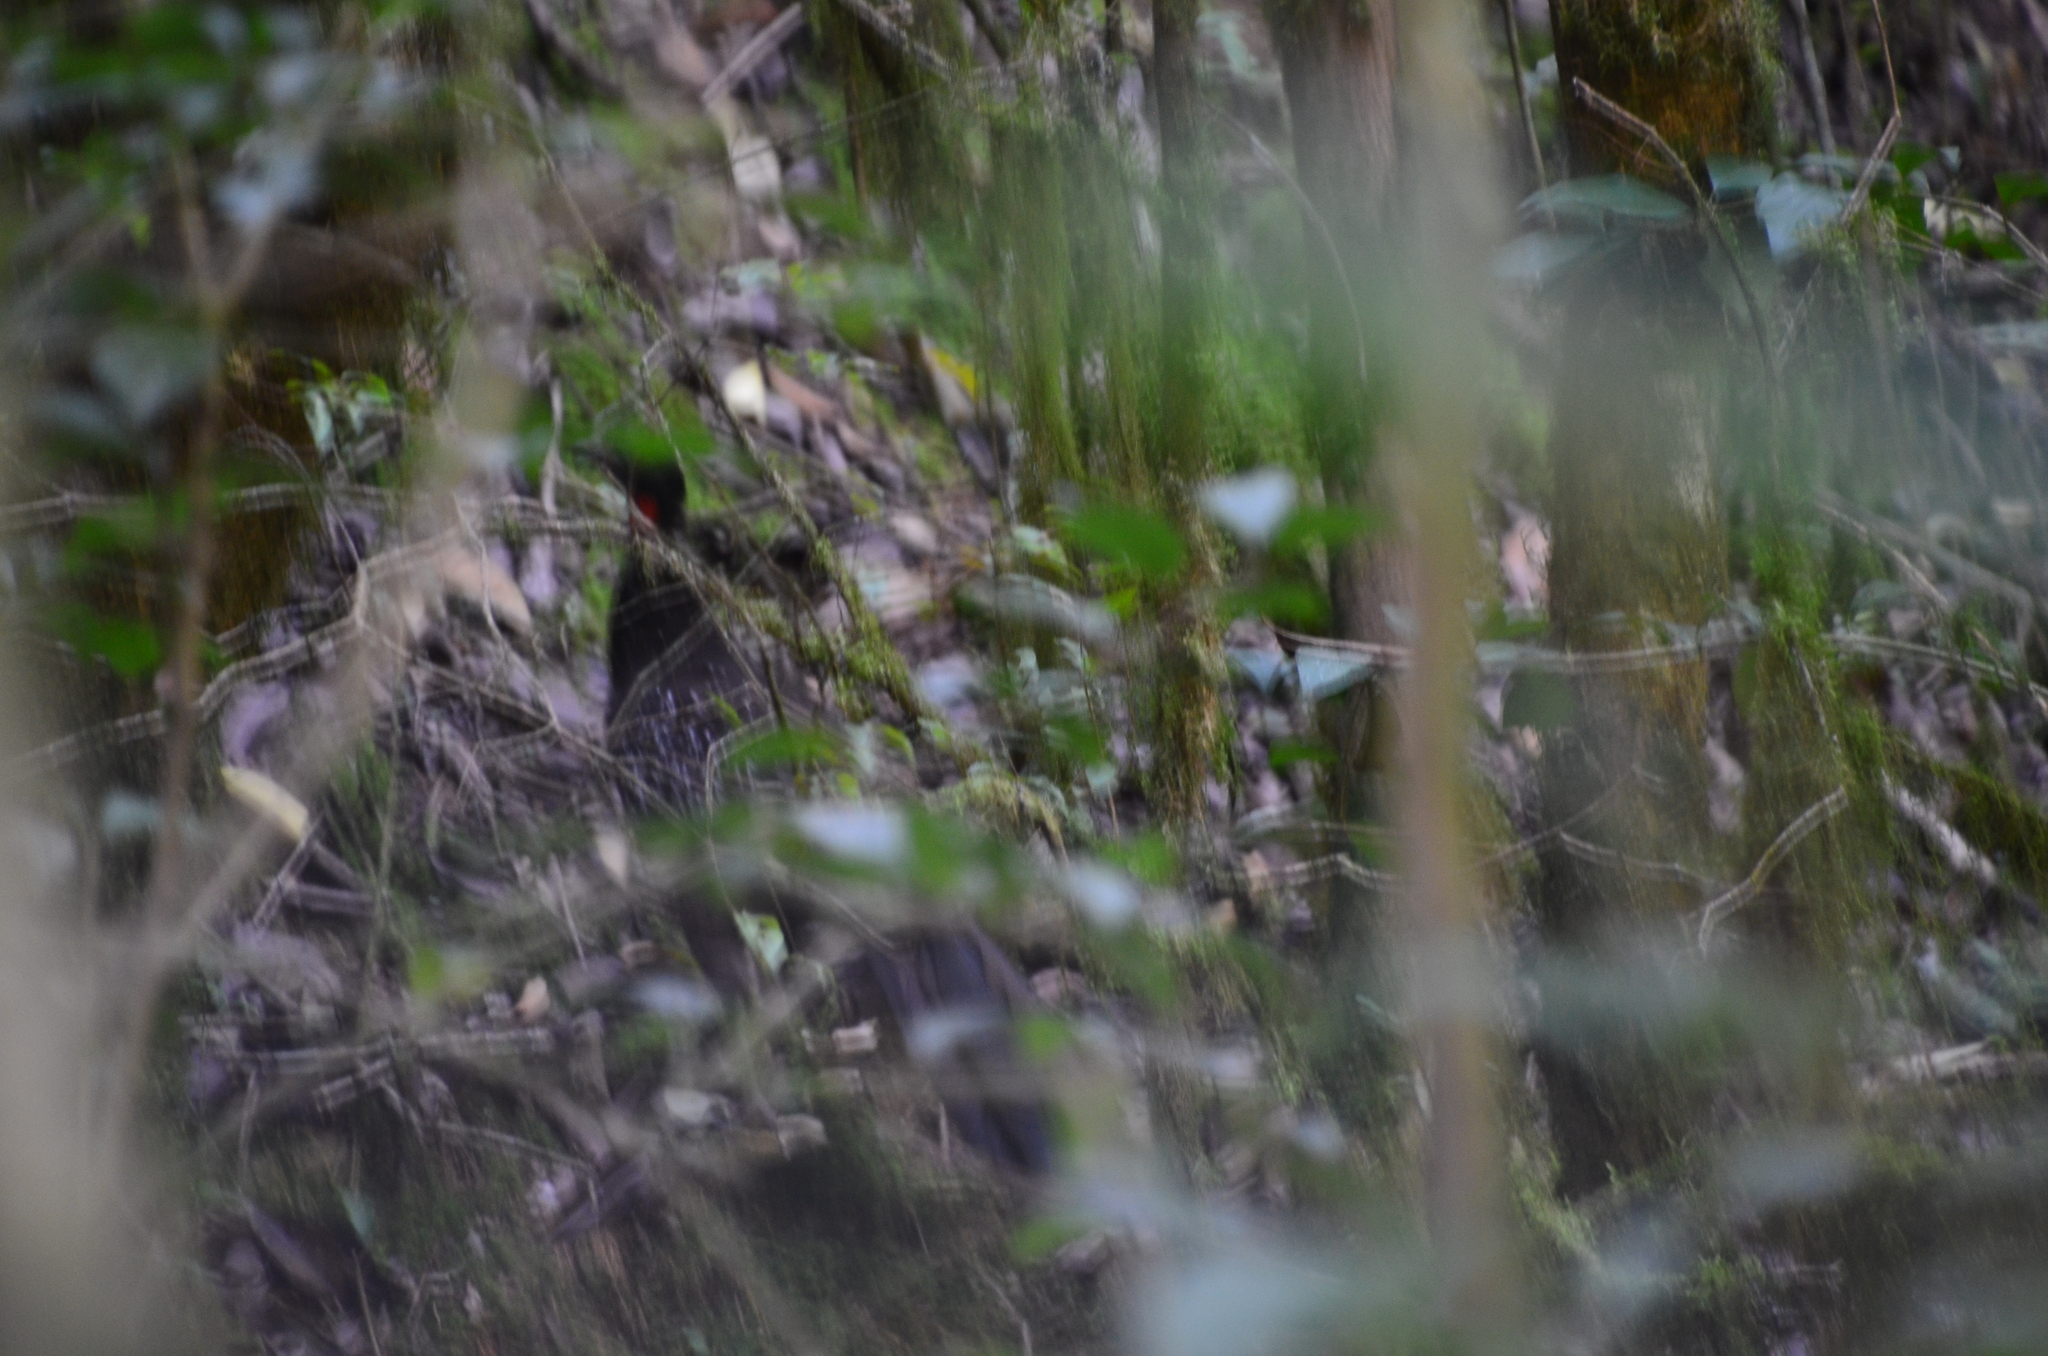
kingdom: Animalia
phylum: Chordata
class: Aves
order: Galliformes
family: Cracidae
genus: Penelope
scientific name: Penelope bridgesi
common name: Yungas guan
